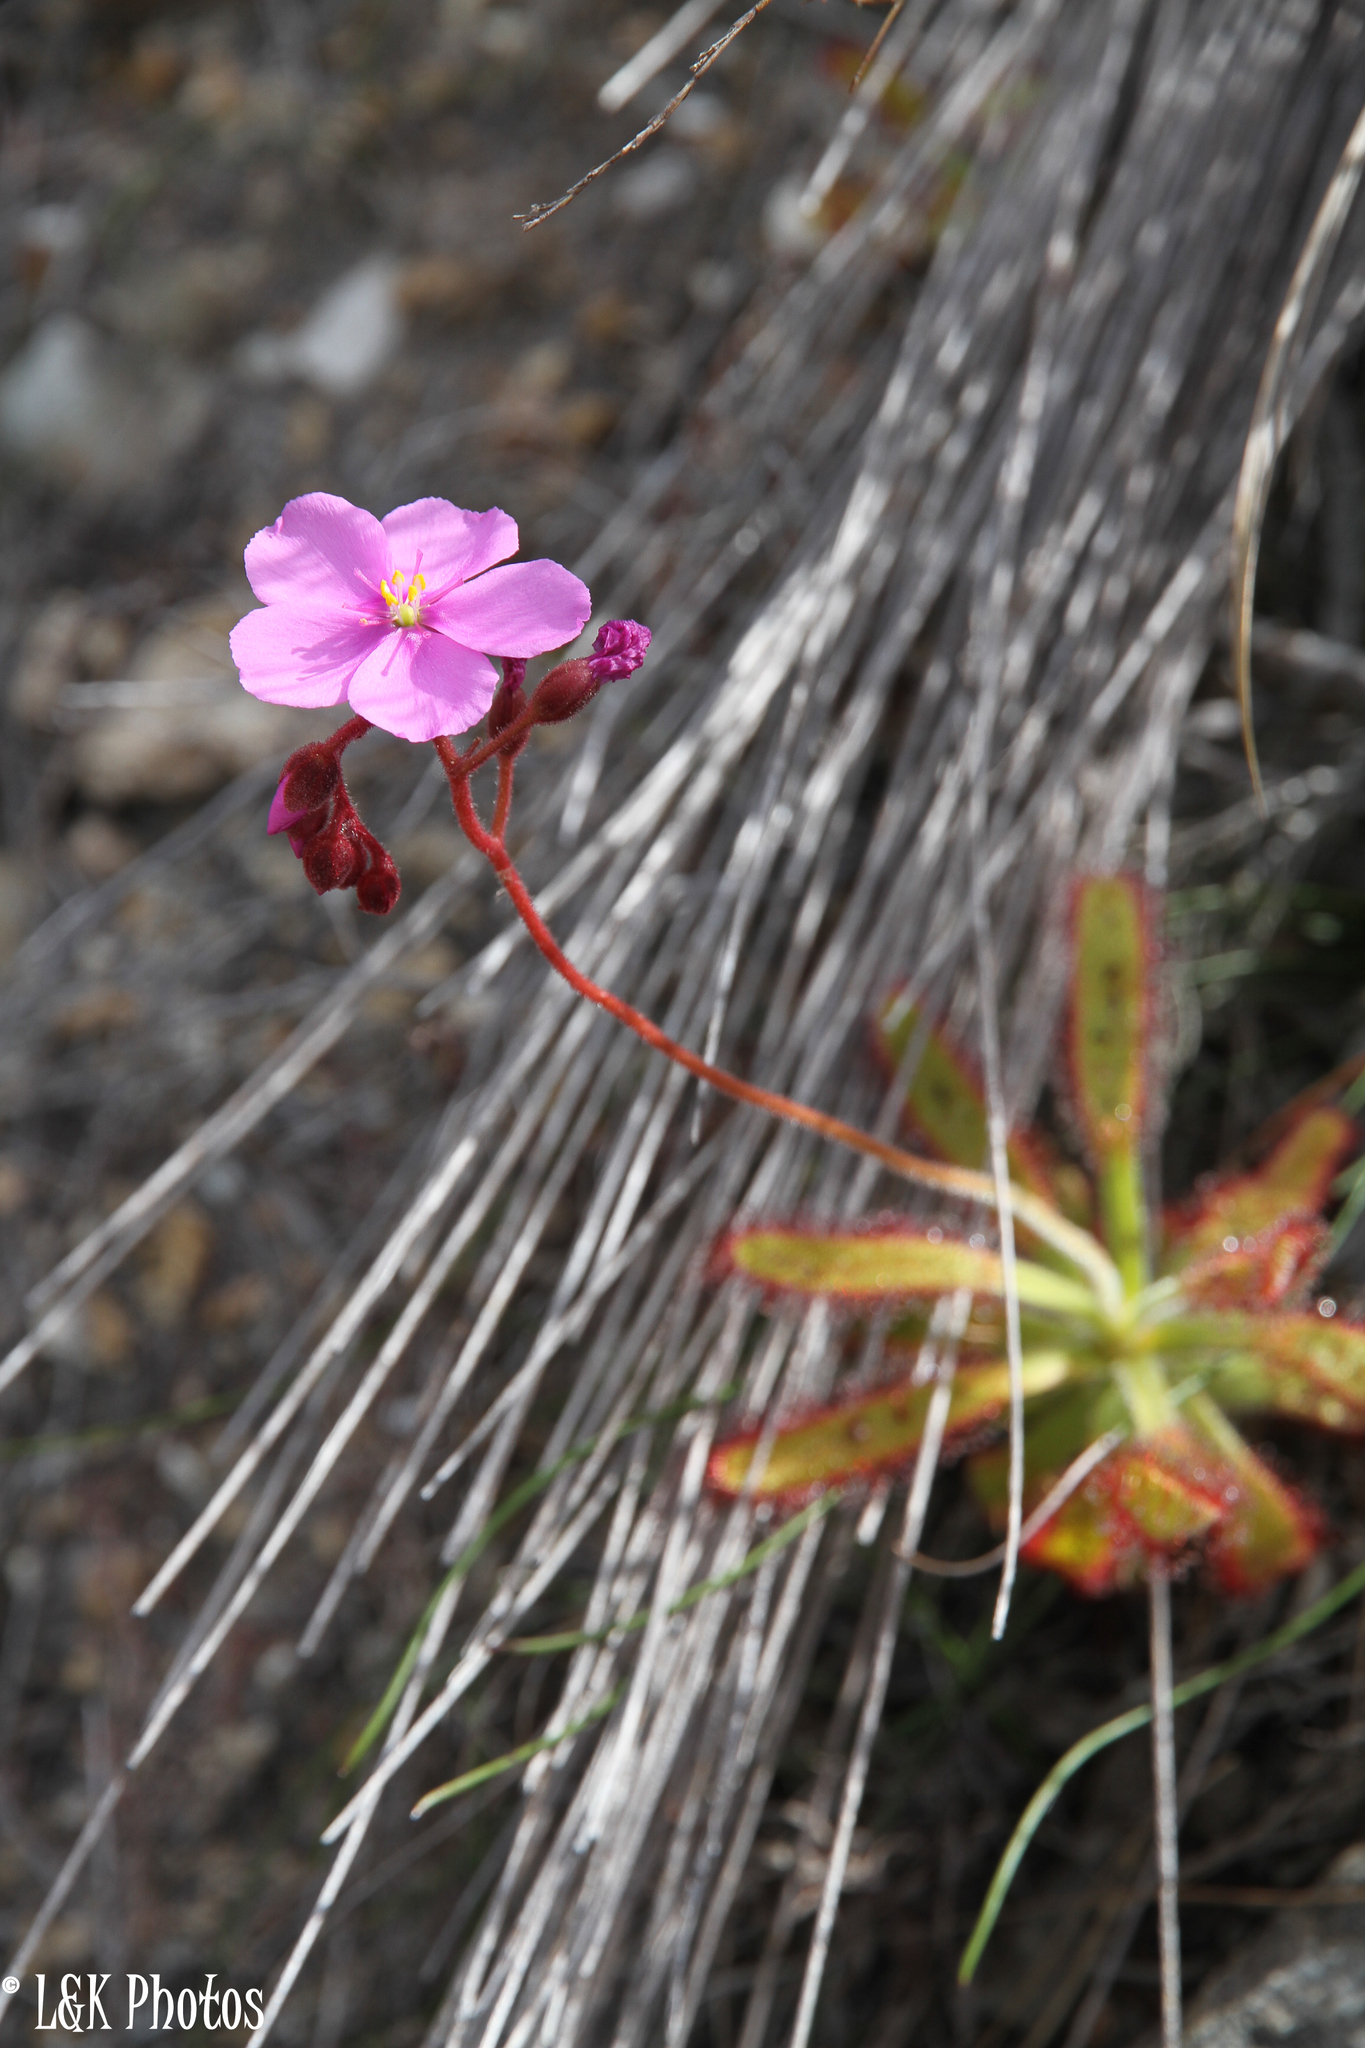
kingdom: Plantae
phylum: Tracheophyta
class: Magnoliopsida
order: Caryophyllales
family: Droseraceae
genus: Drosera
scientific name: Drosera hilaris
